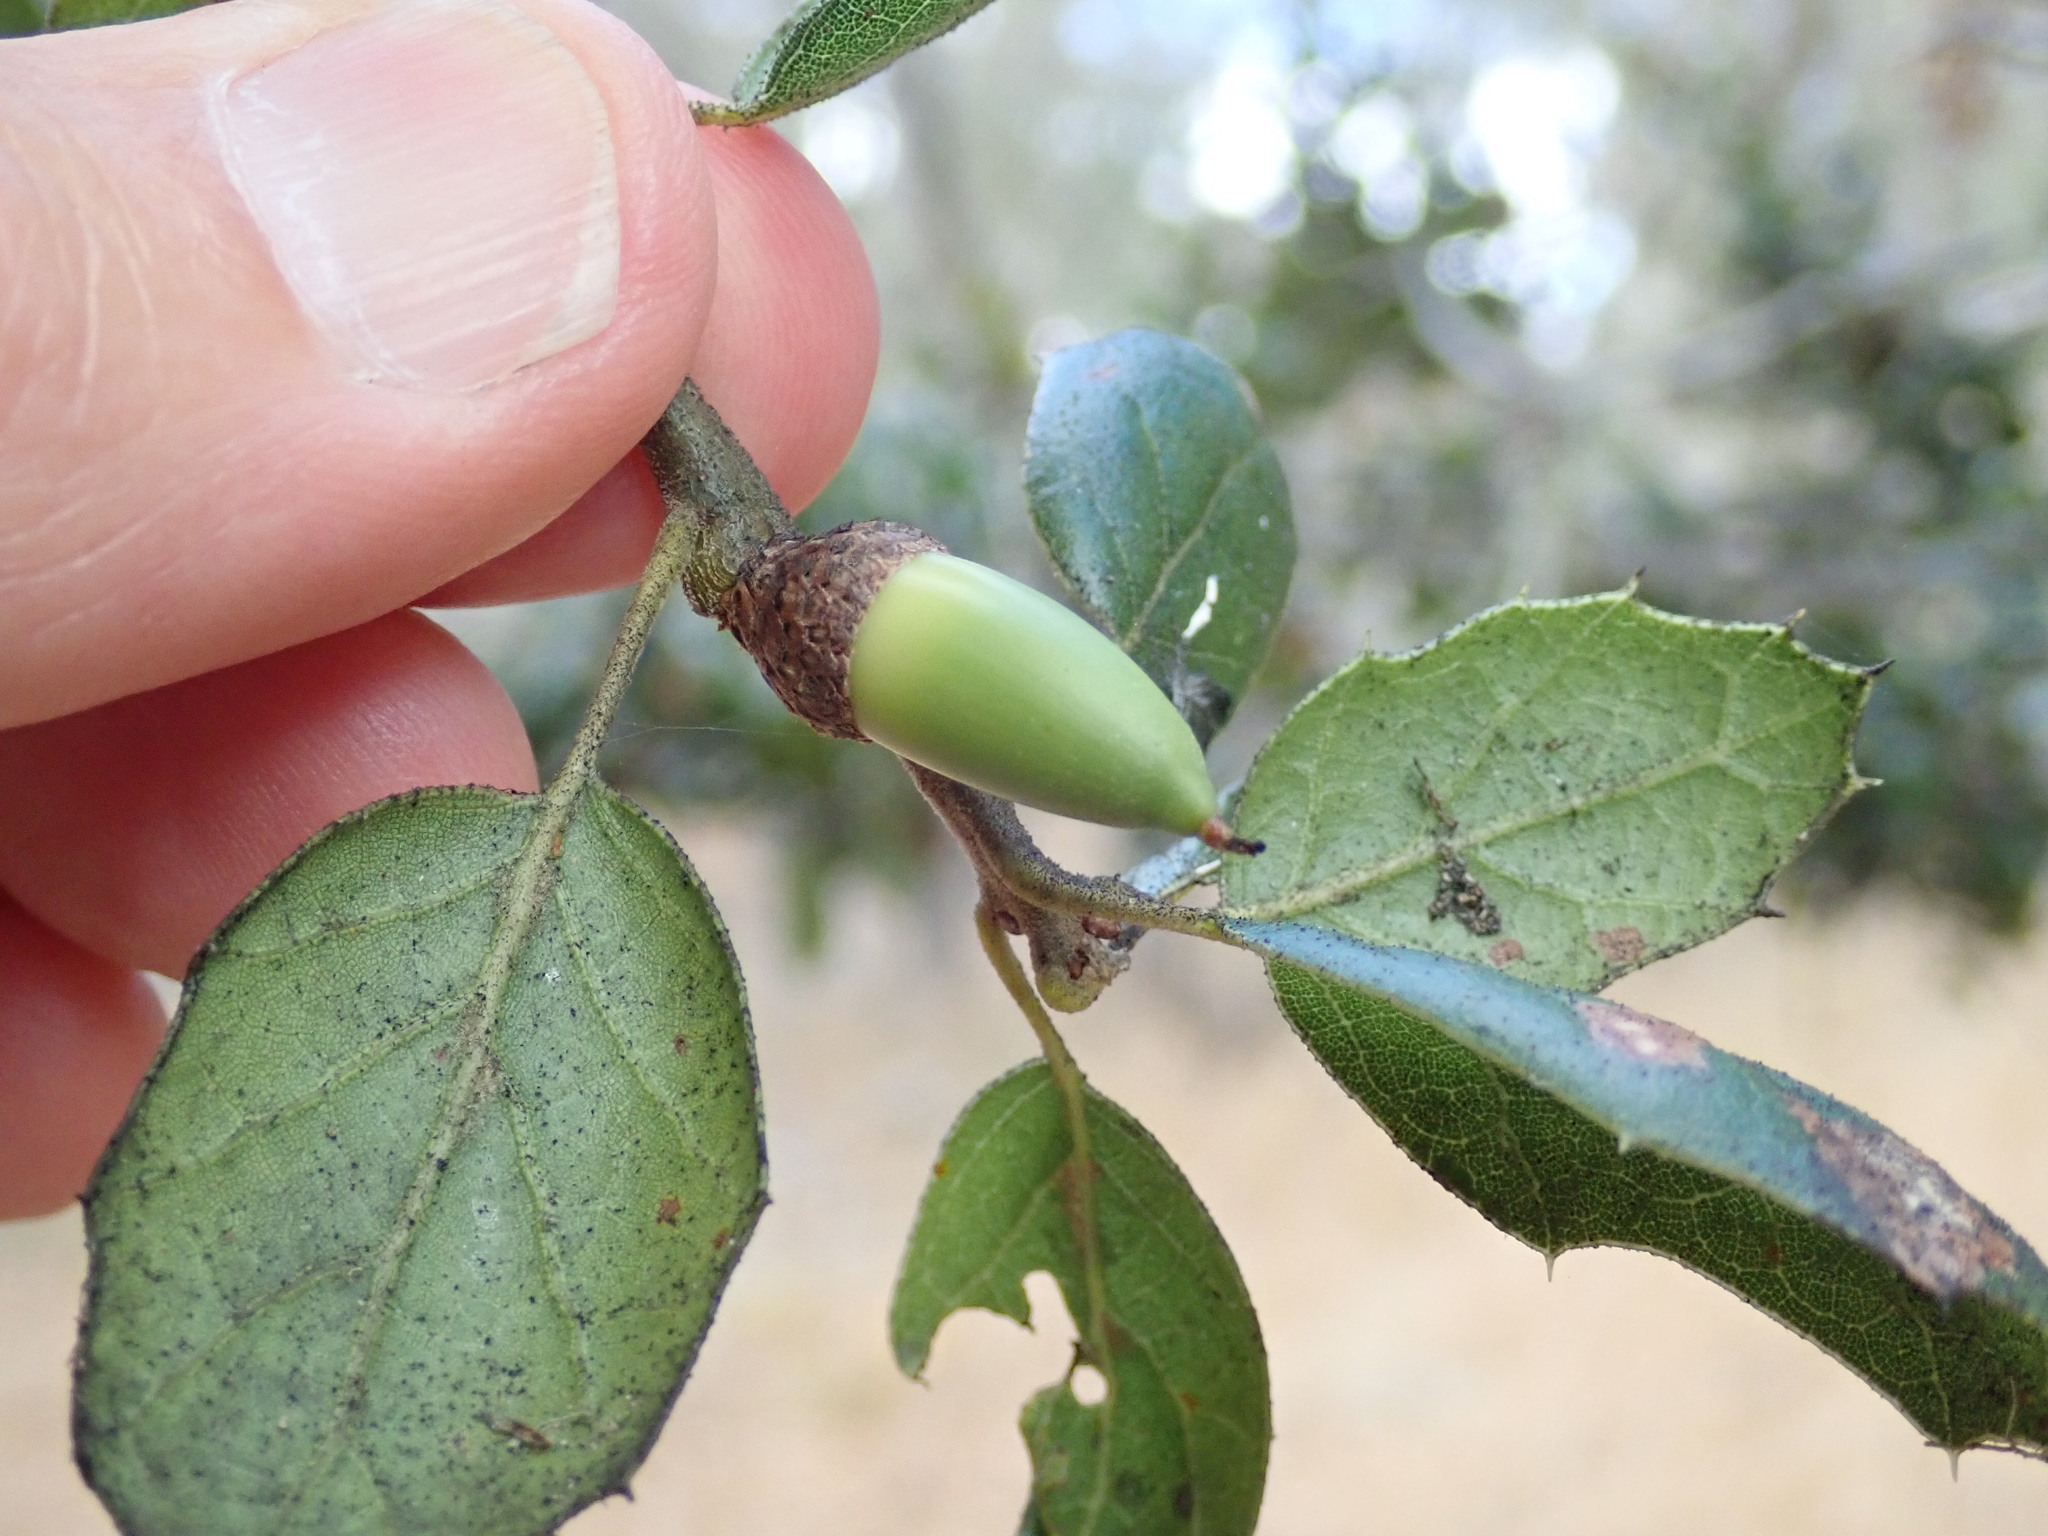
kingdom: Plantae
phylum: Tracheophyta
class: Magnoliopsida
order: Fagales
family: Fagaceae
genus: Quercus
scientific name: Quercus agrifolia
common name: California live oak
